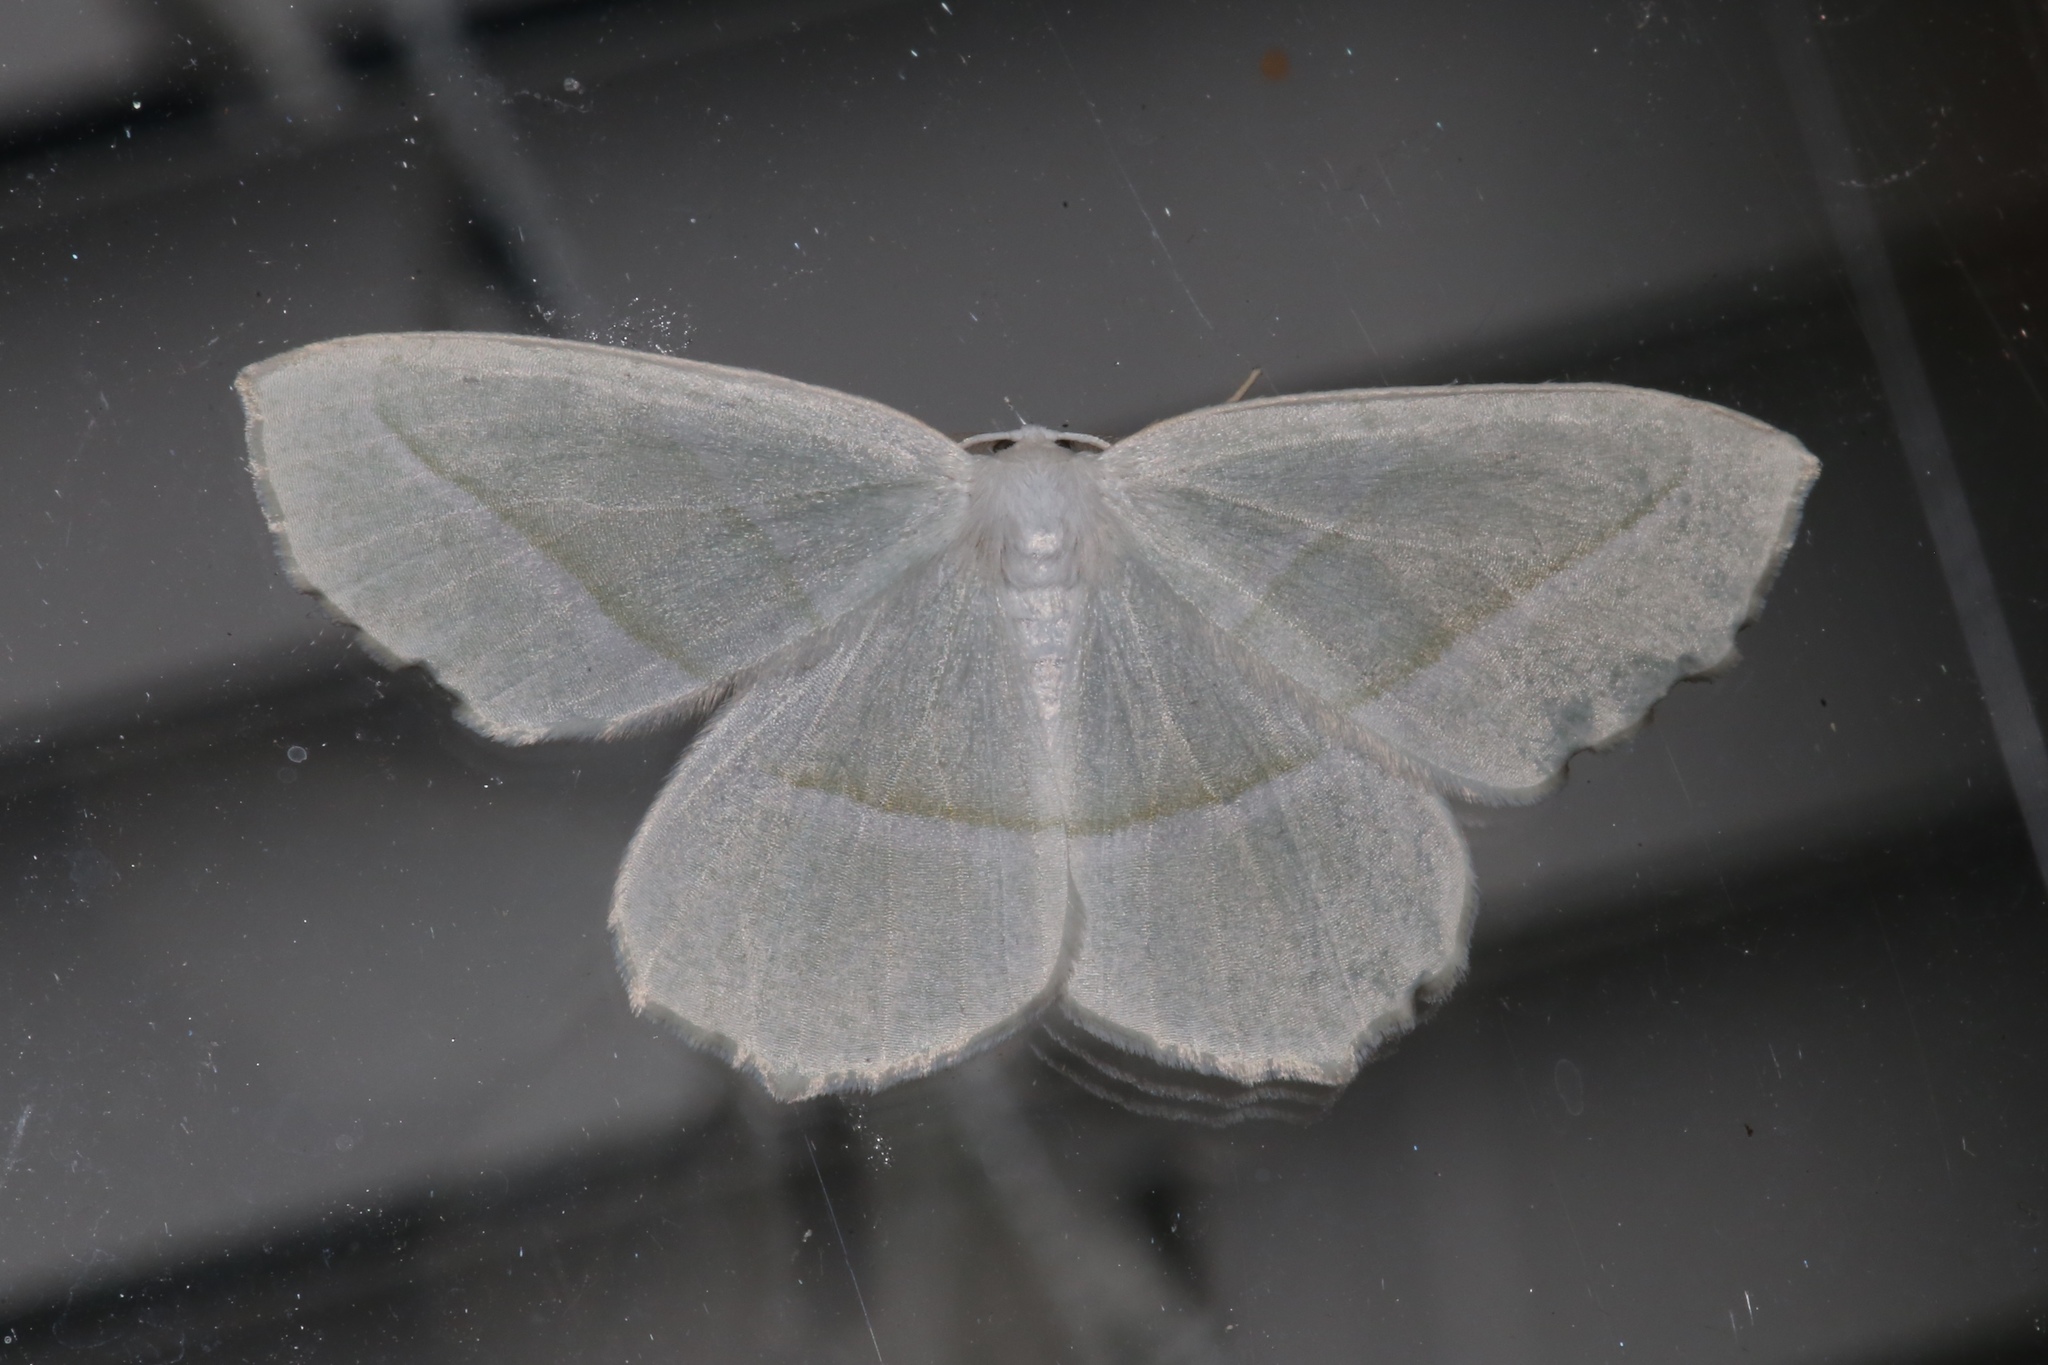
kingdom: Animalia
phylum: Arthropoda
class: Insecta
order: Lepidoptera
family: Geometridae
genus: Campaea
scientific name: Campaea perlata
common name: Fringed looper
